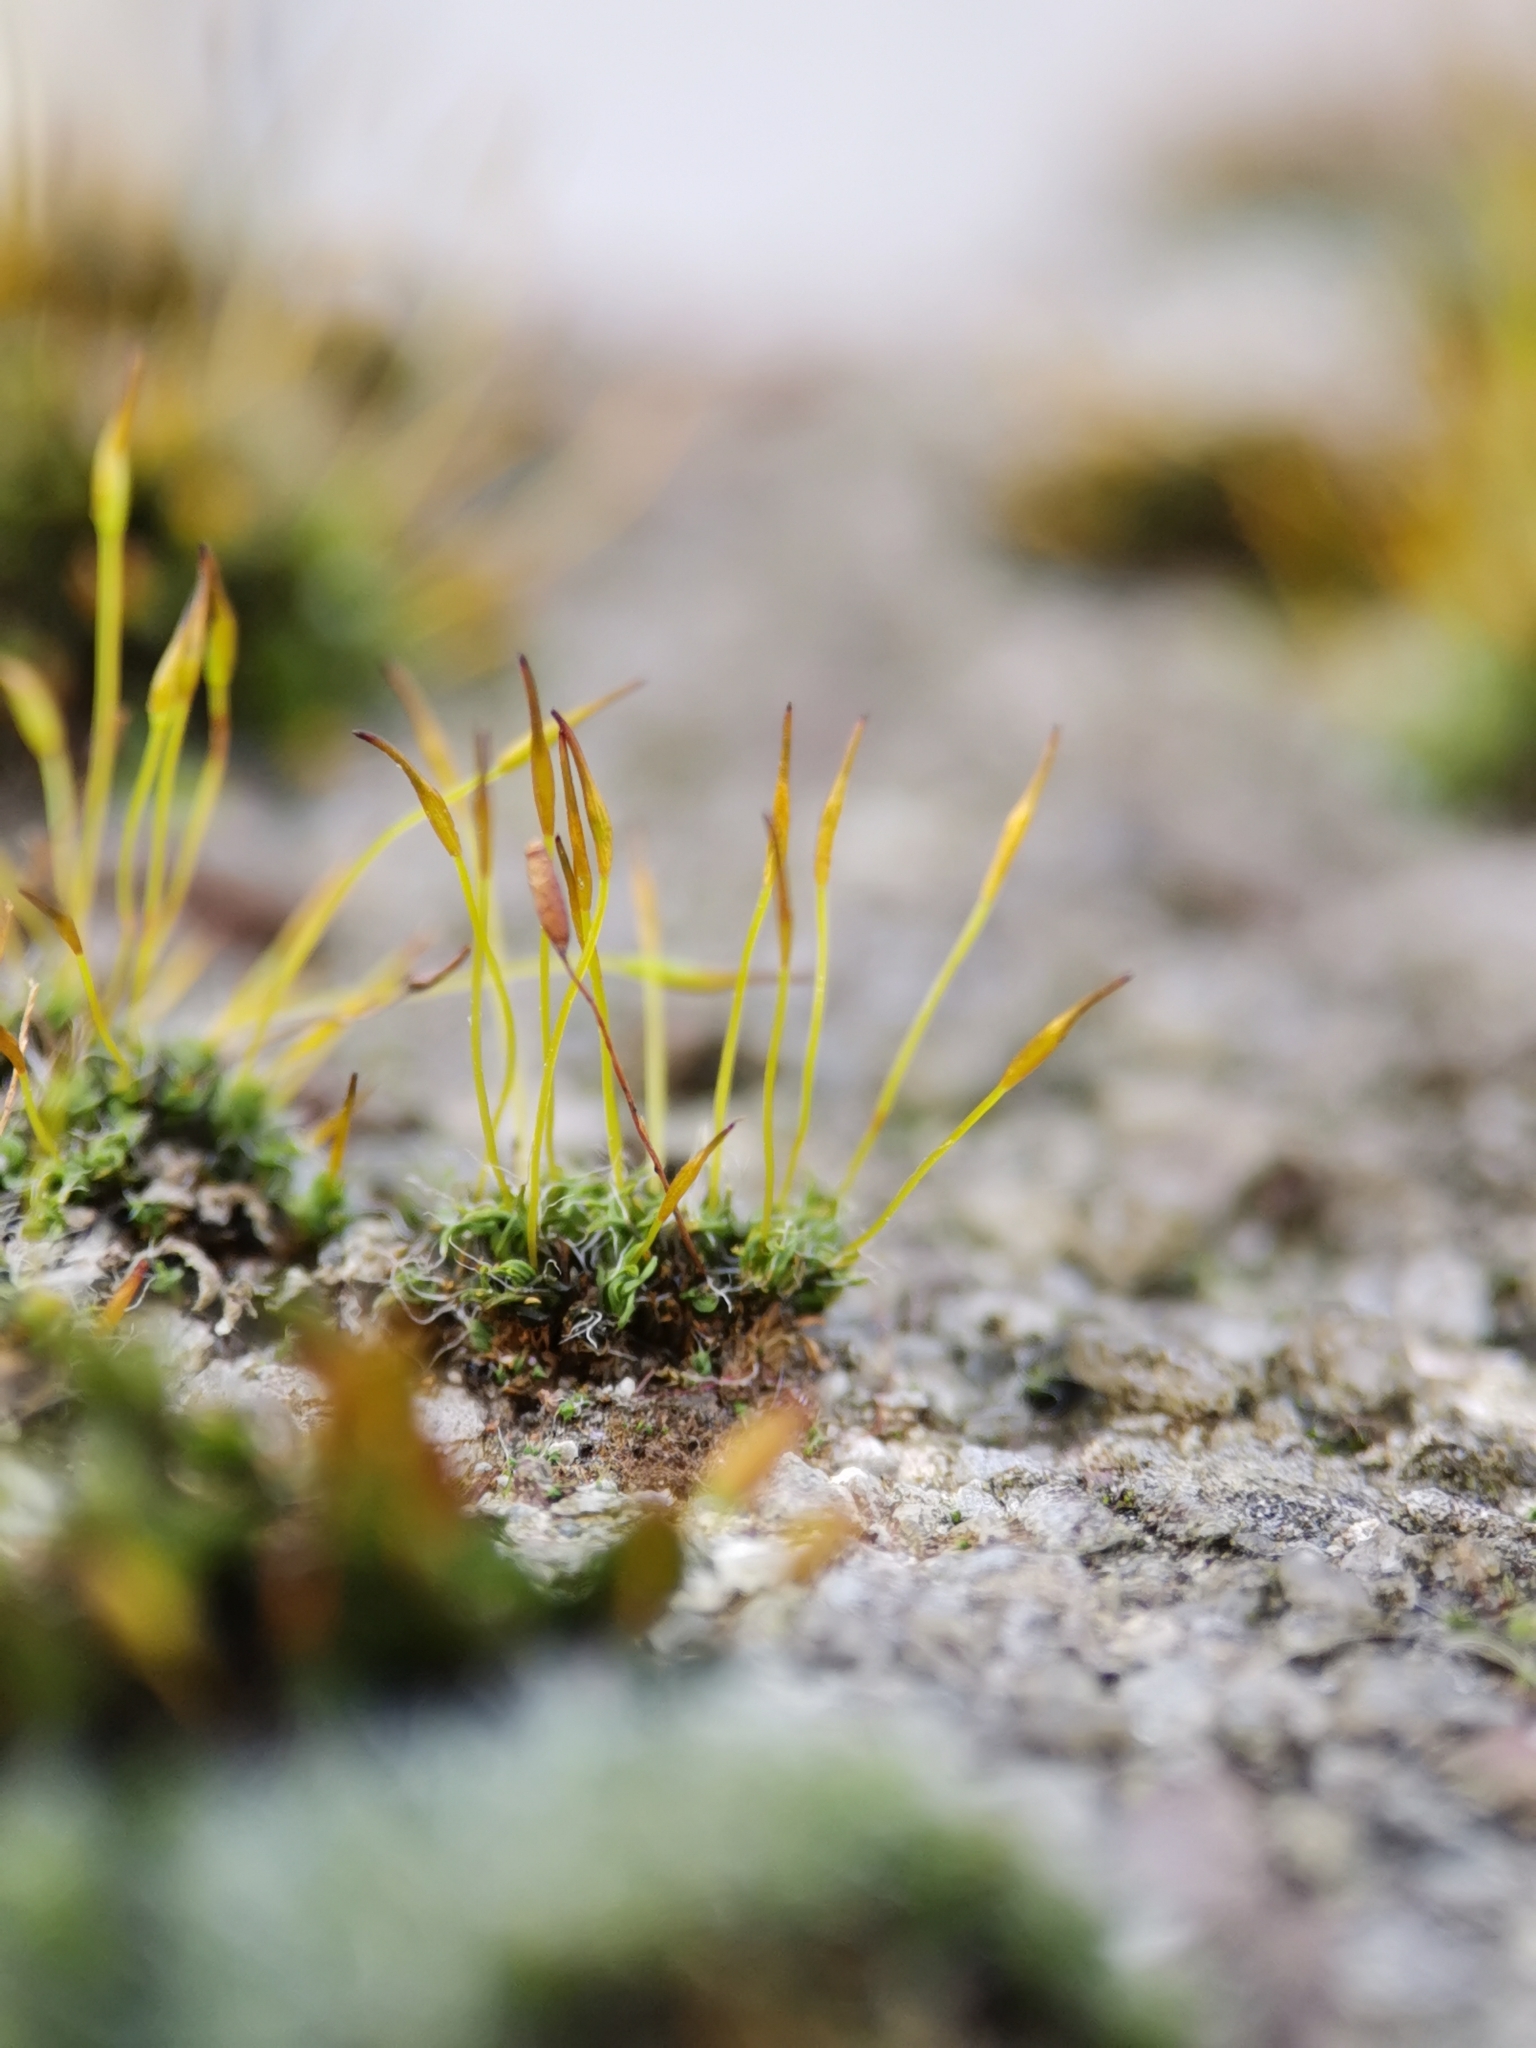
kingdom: Plantae
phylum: Bryophyta
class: Bryopsida
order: Pottiales
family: Pottiaceae
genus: Tortula
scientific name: Tortula muralis
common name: Wall screw-moss
